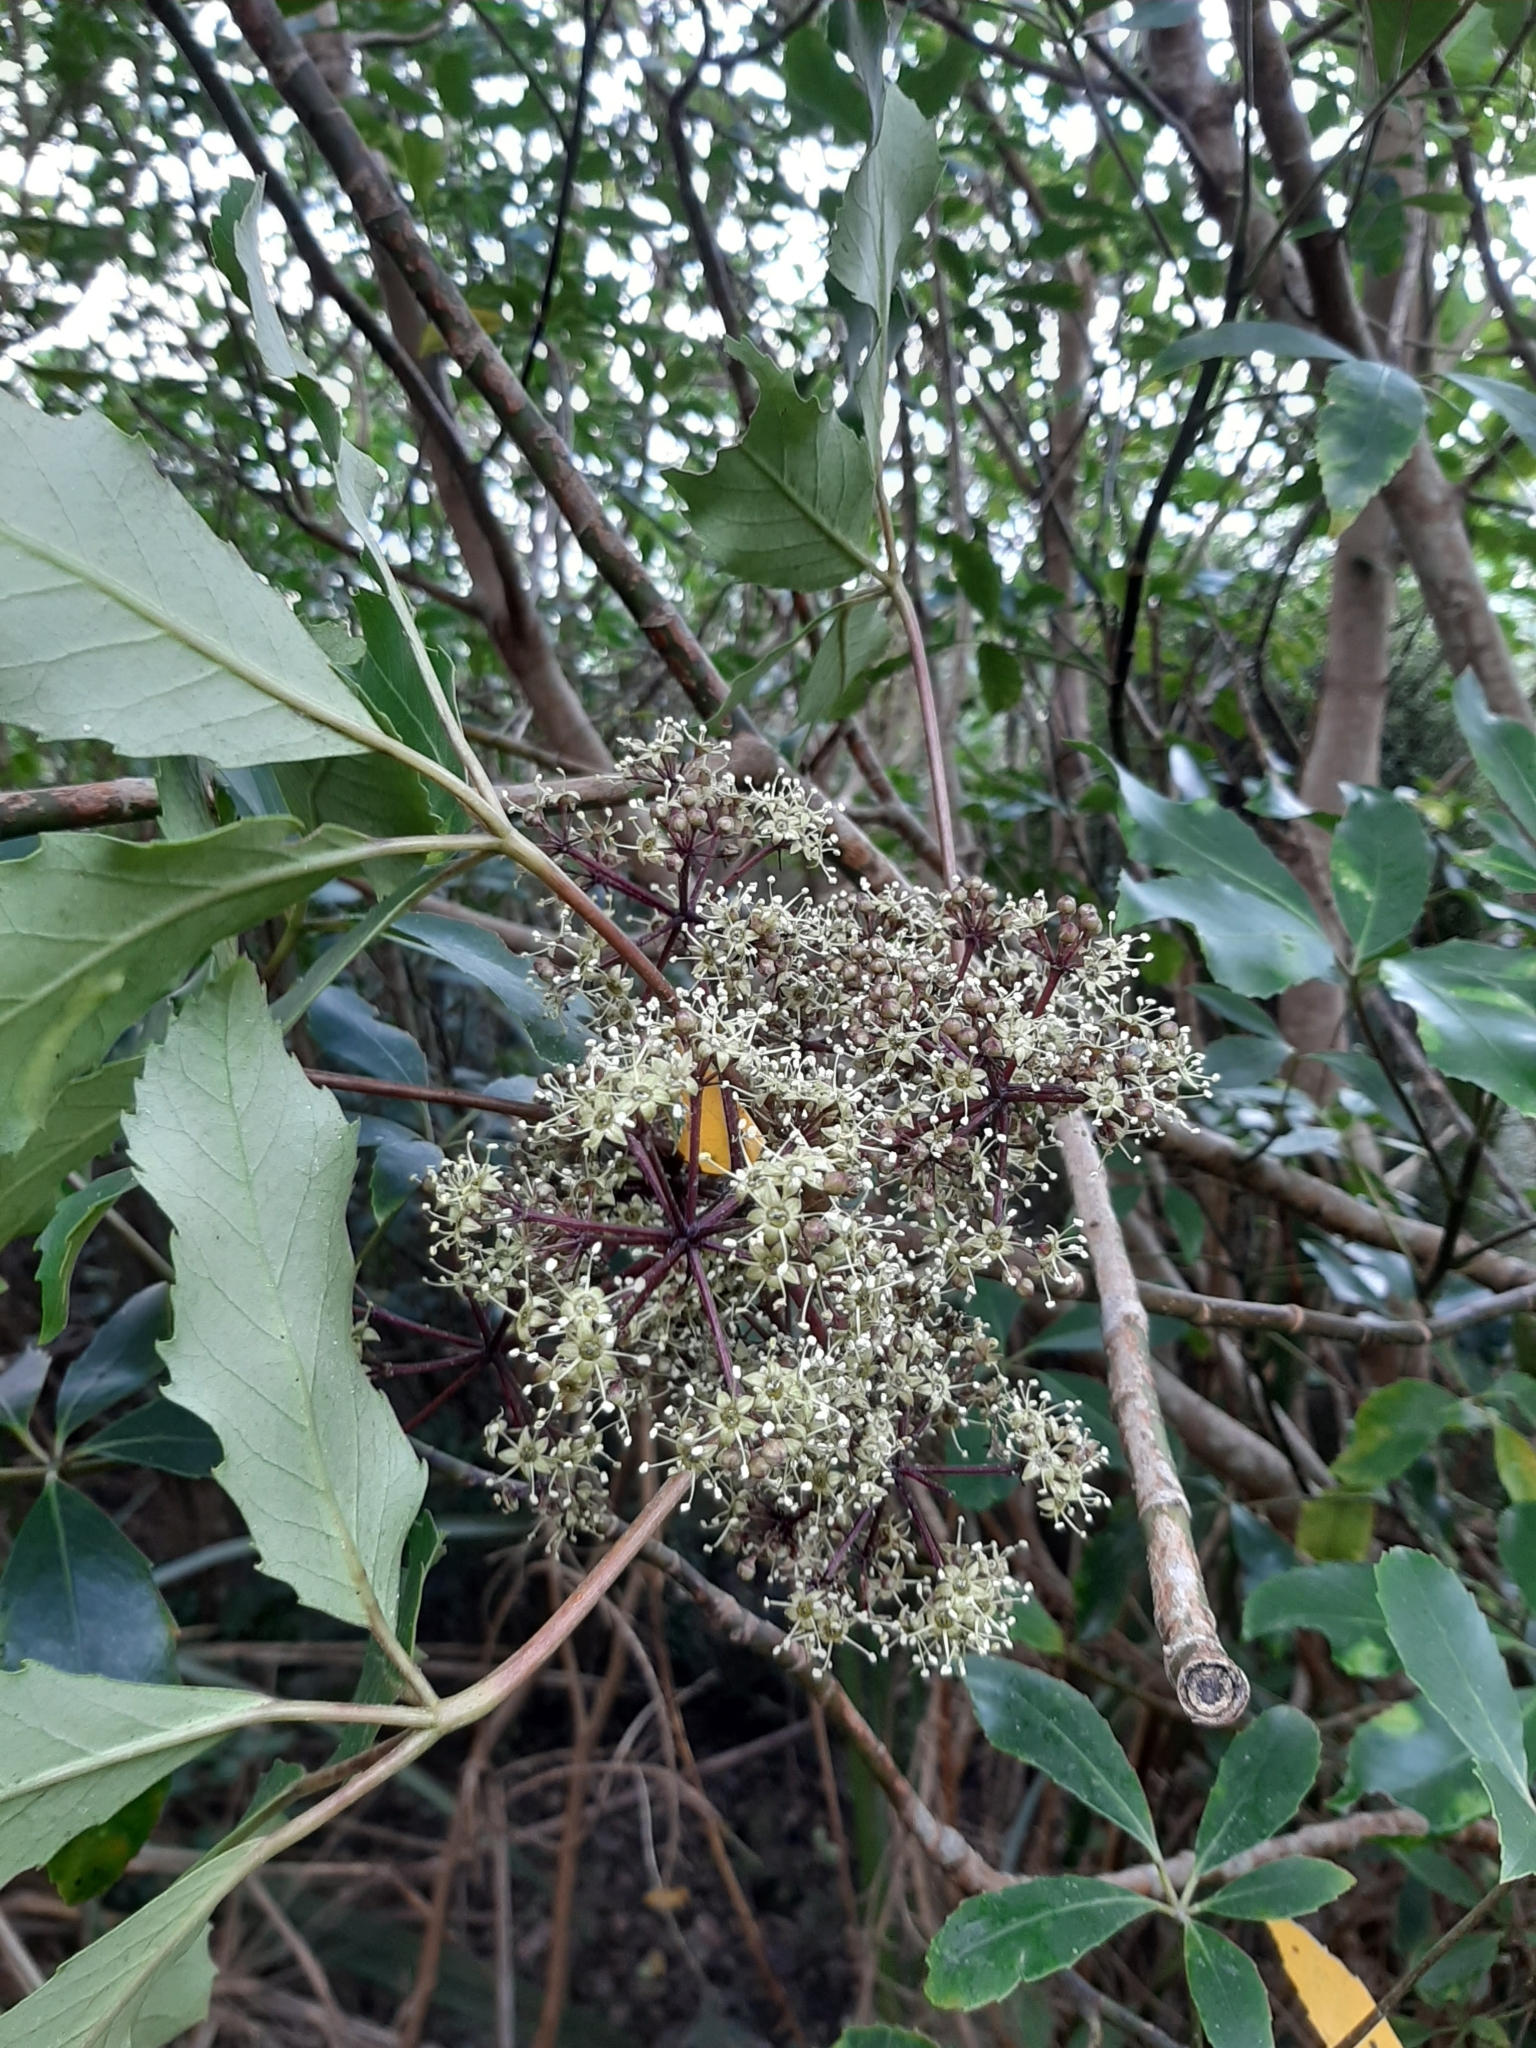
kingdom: Plantae
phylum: Tracheophyta
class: Magnoliopsida
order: Apiales
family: Araliaceae
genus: Neopanax
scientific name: Neopanax arboreus
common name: Five-fingers
